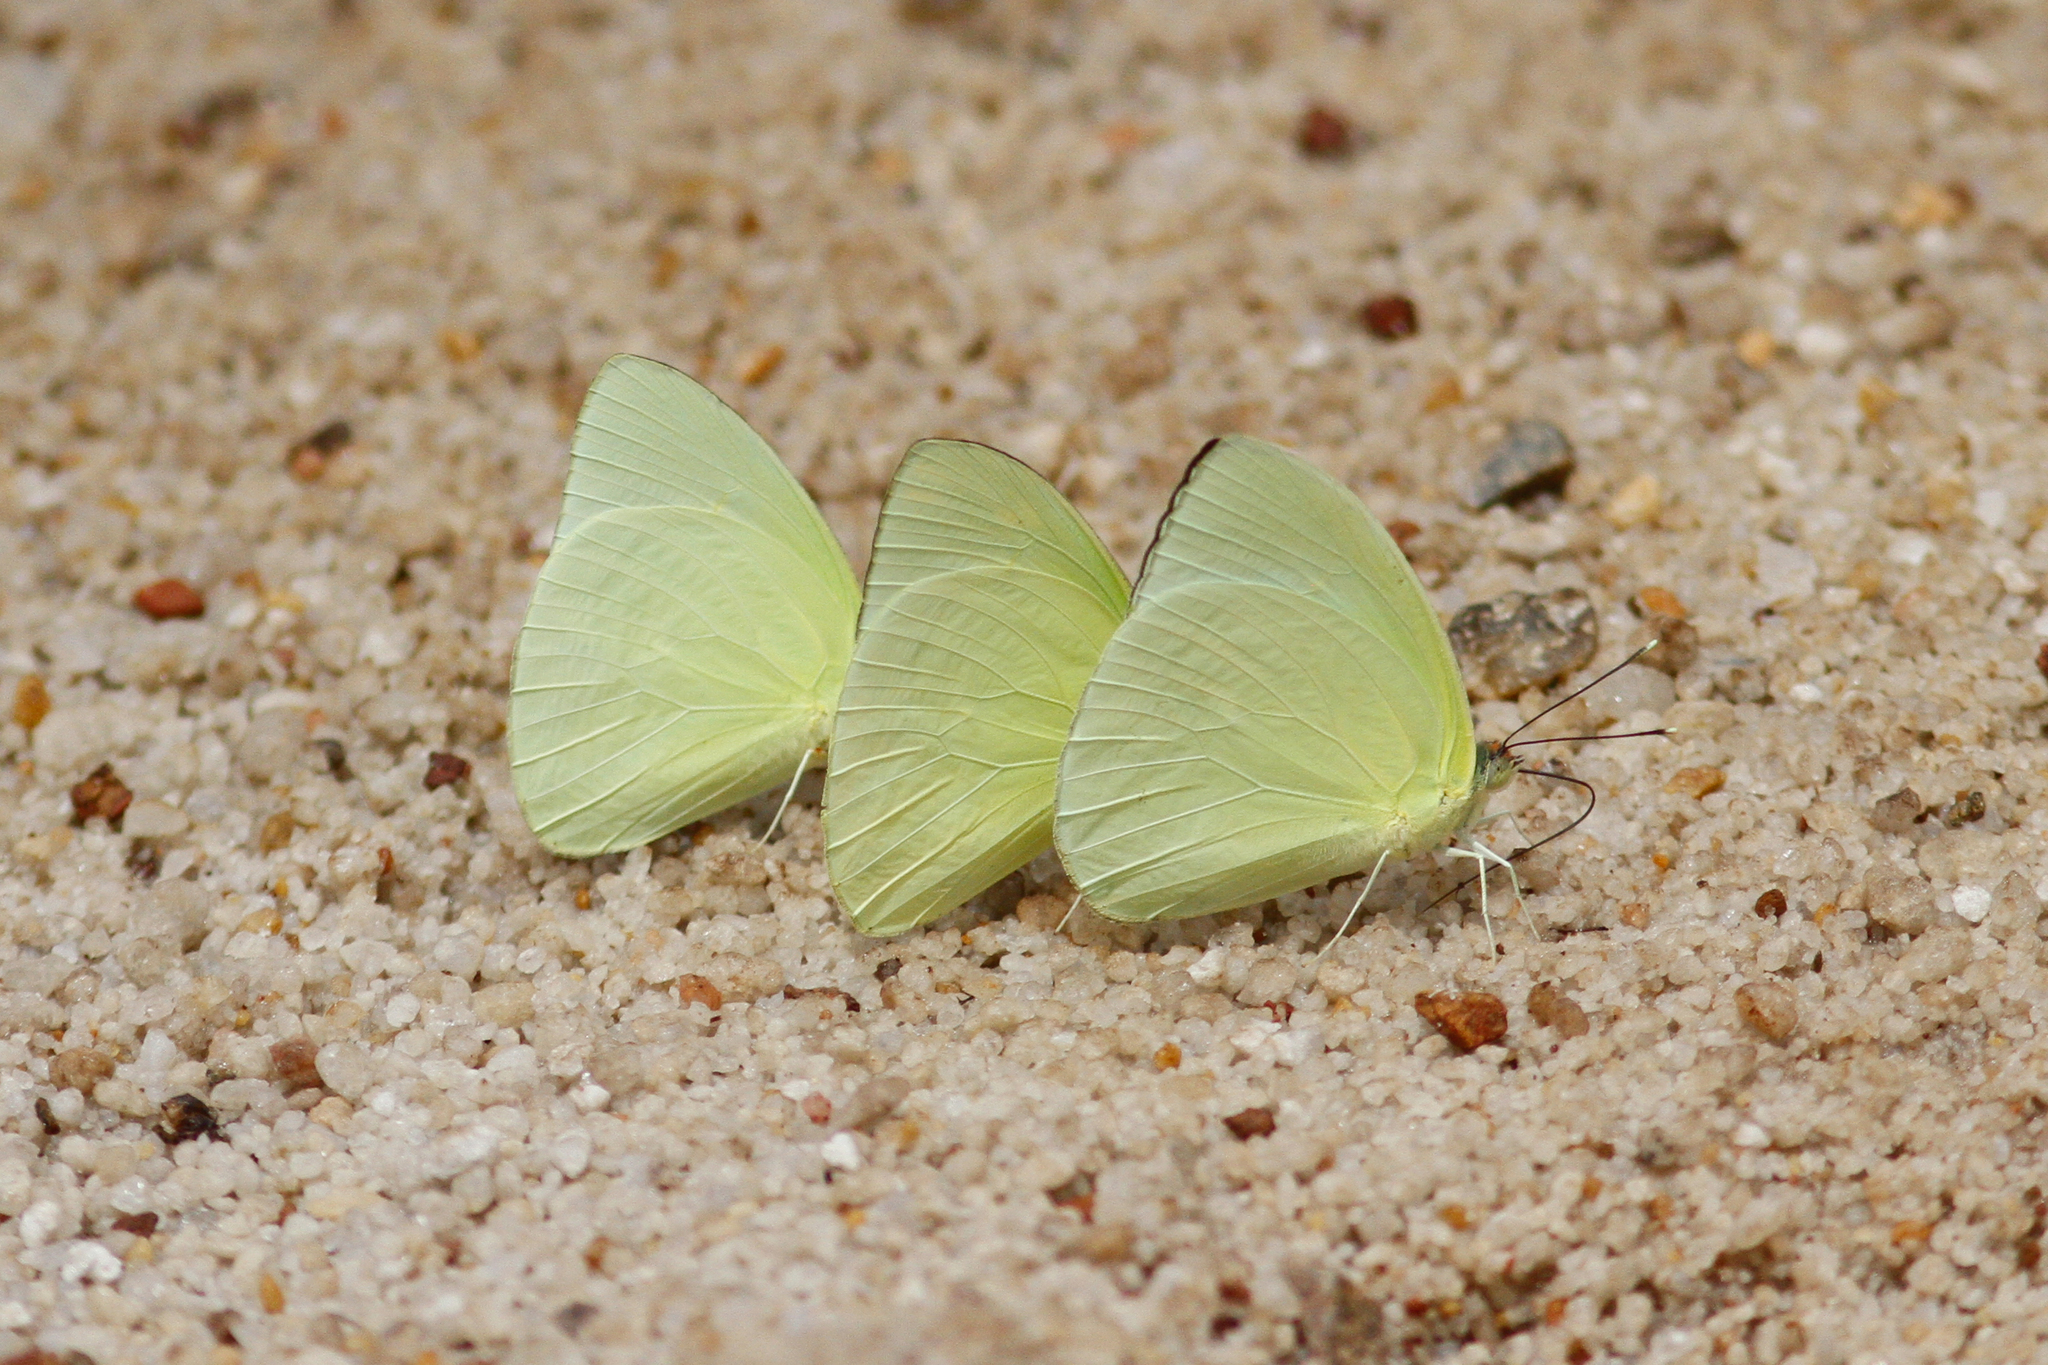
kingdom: Animalia
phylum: Arthropoda
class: Insecta
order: Lepidoptera
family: Pieridae
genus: Aphrissa
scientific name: Aphrissa statira
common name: Statira sulphur
